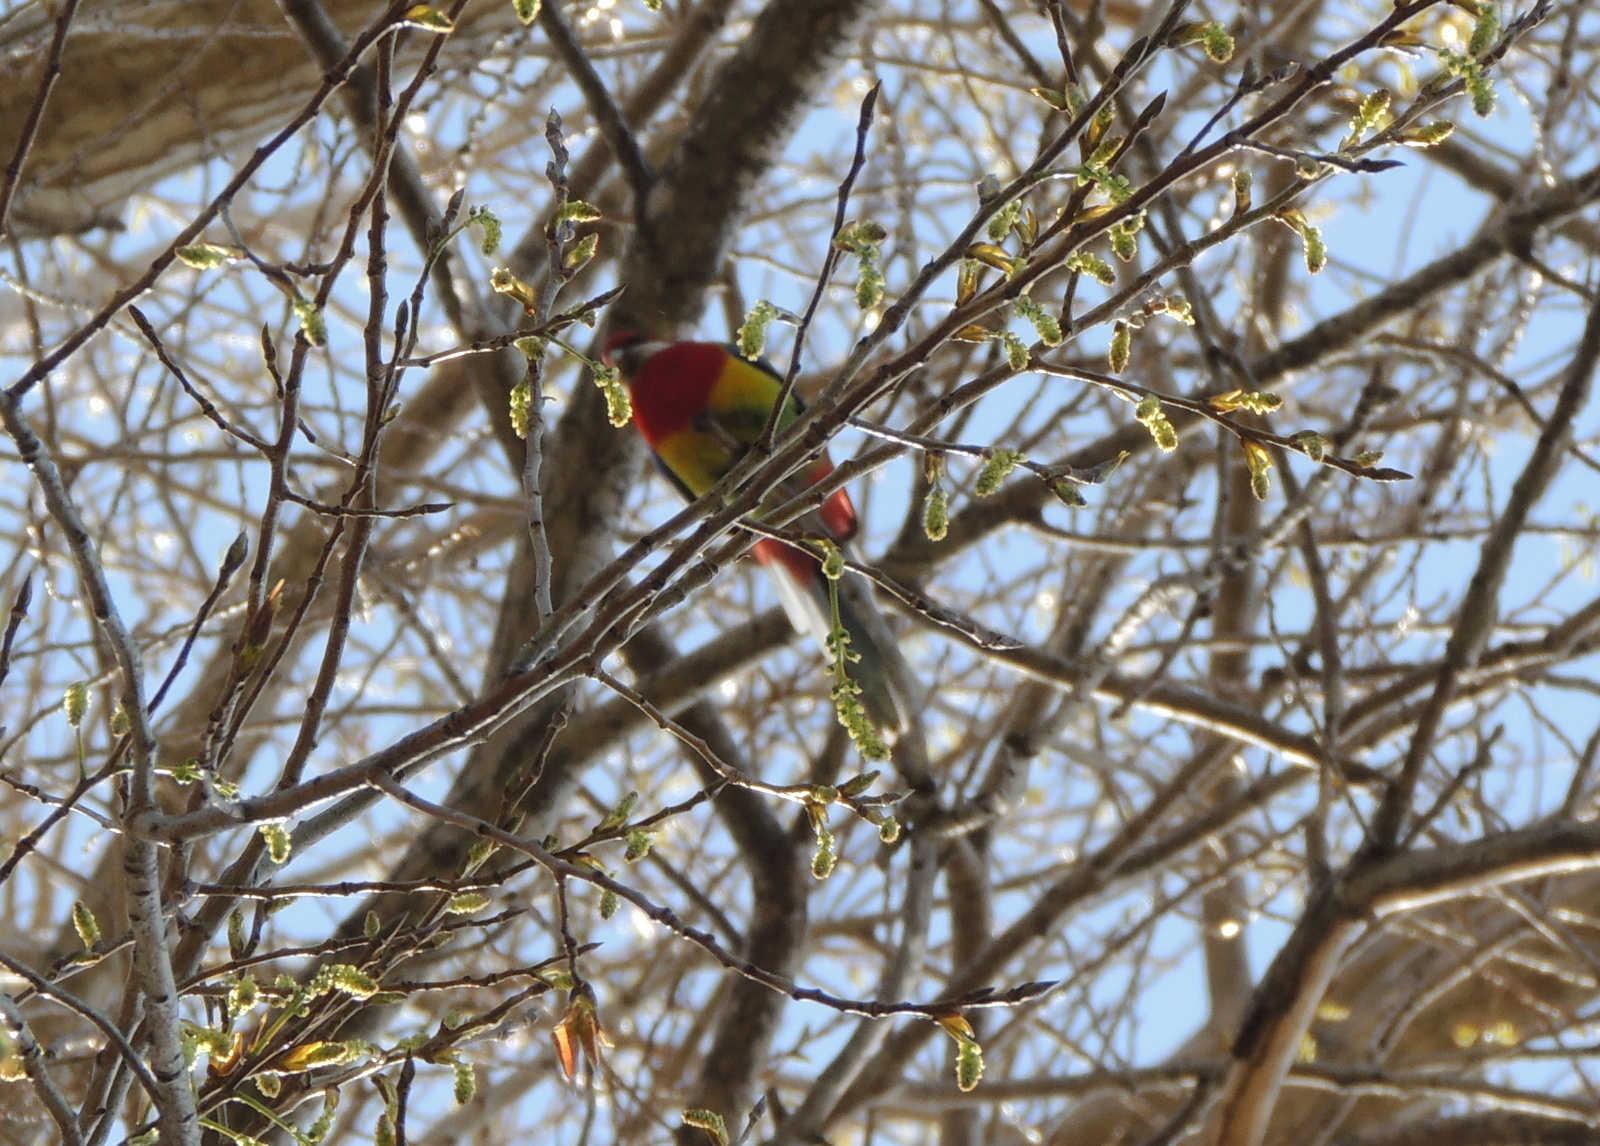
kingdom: Animalia
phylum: Chordata
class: Aves
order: Psittaciformes
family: Psittacidae
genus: Platycercus
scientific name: Platycercus eximius
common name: Eastern rosella
